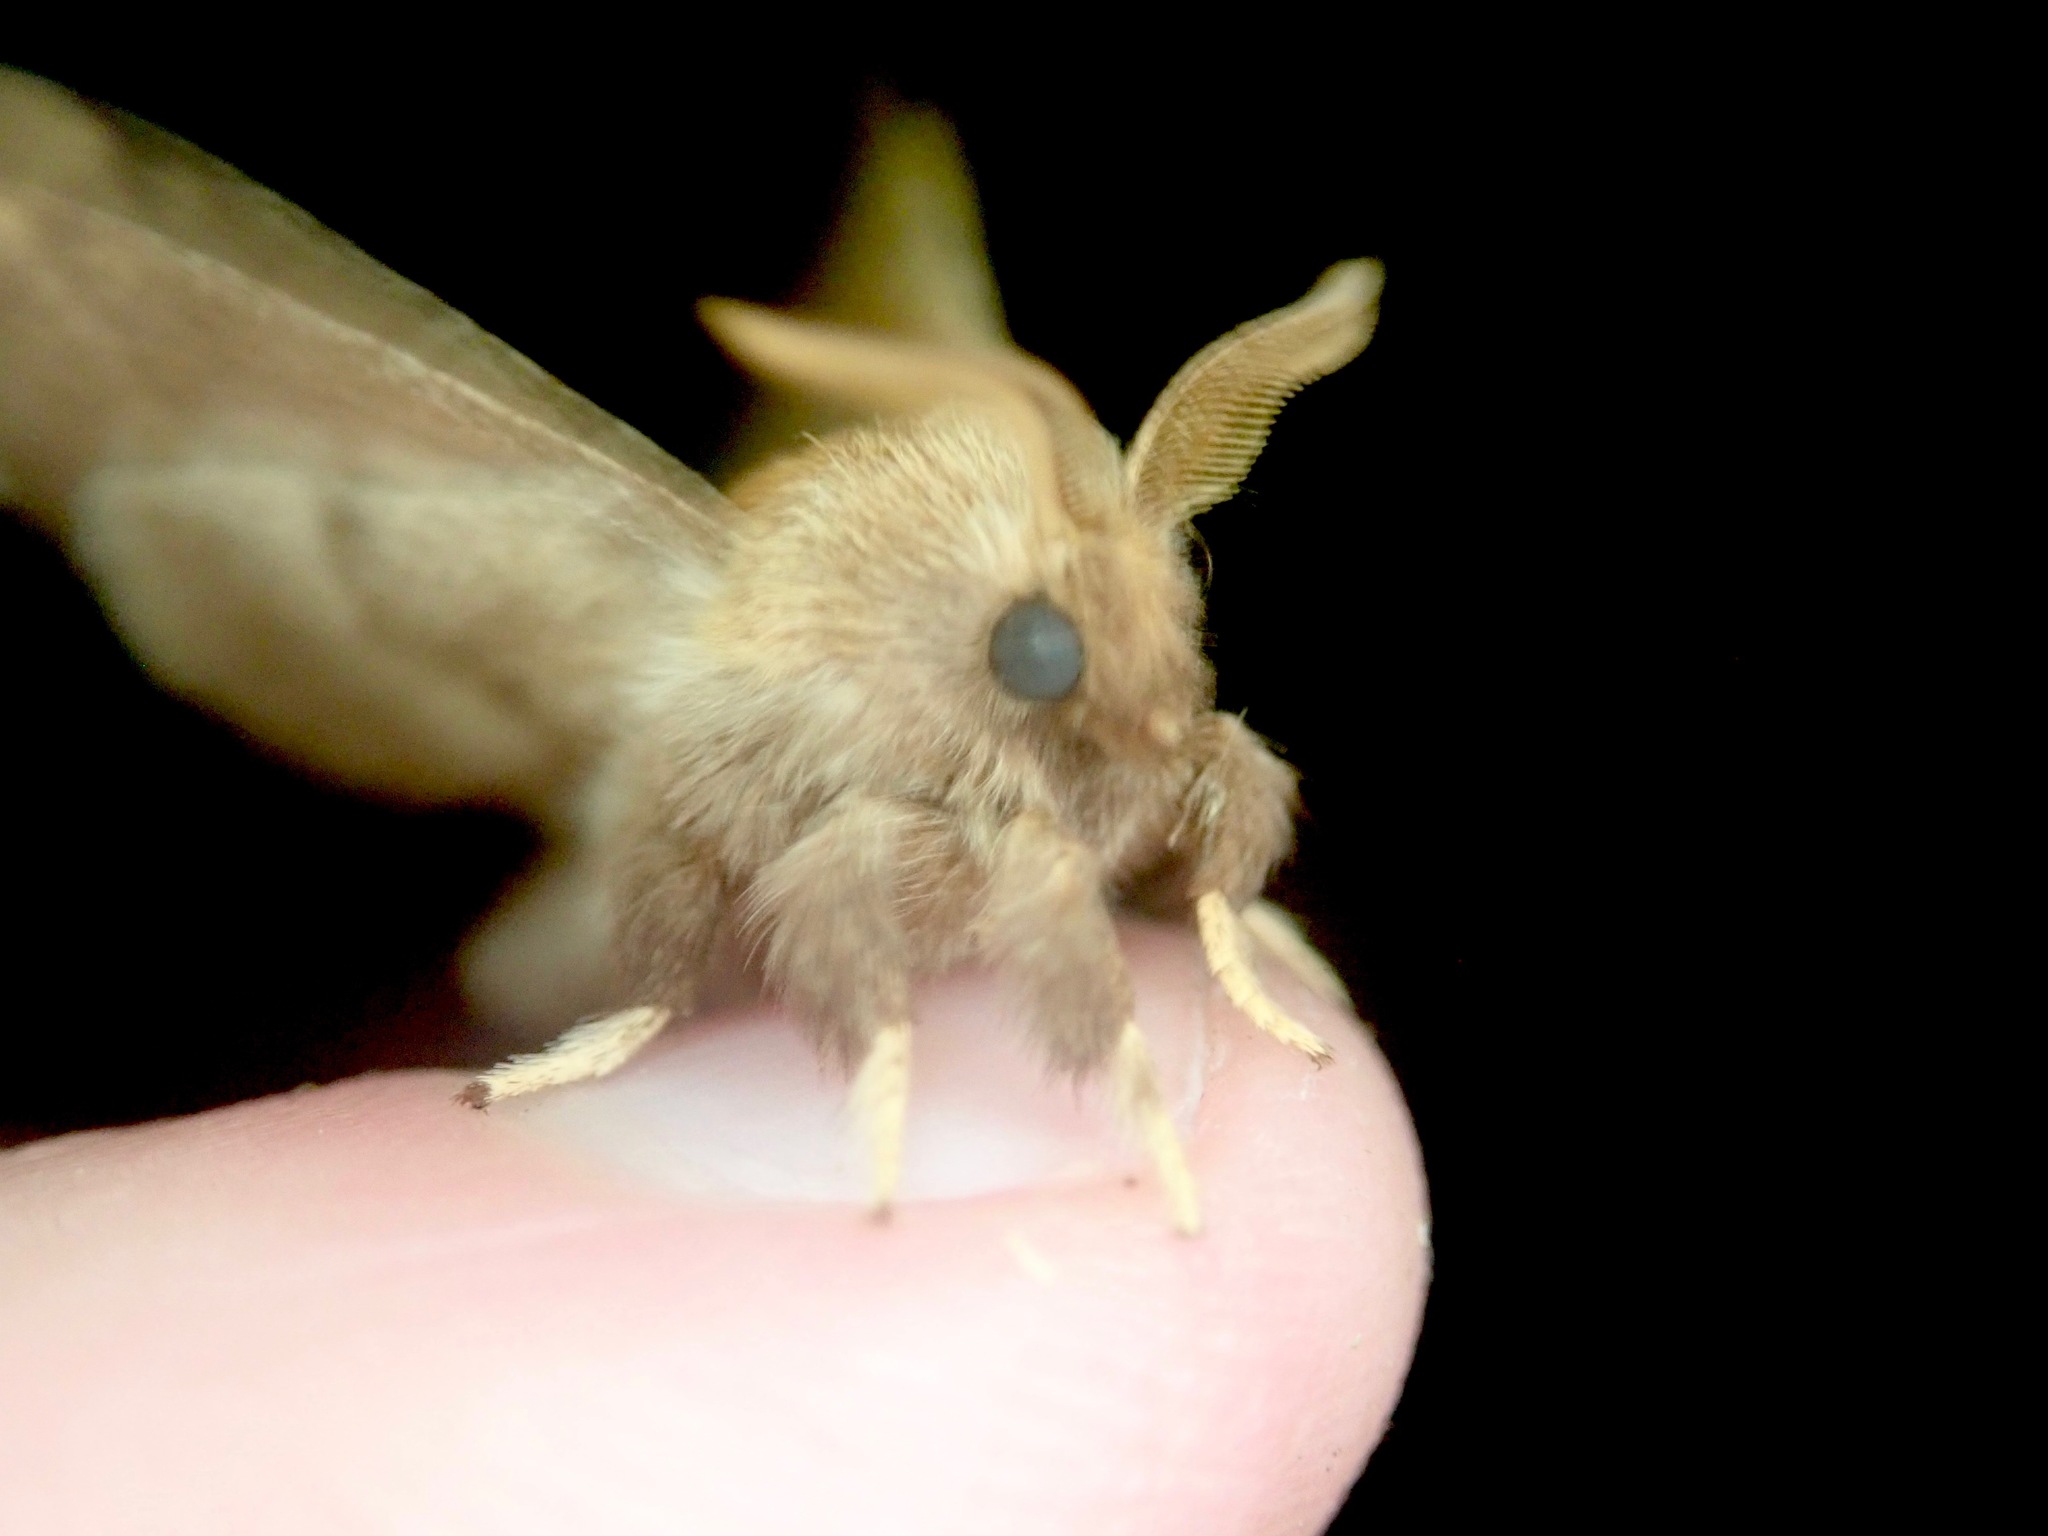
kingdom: Animalia
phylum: Arthropoda
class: Insecta
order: Lepidoptera
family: Lasiocampidae
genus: Malacosoma
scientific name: Malacosoma disstria
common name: Forest tent caterpillar
